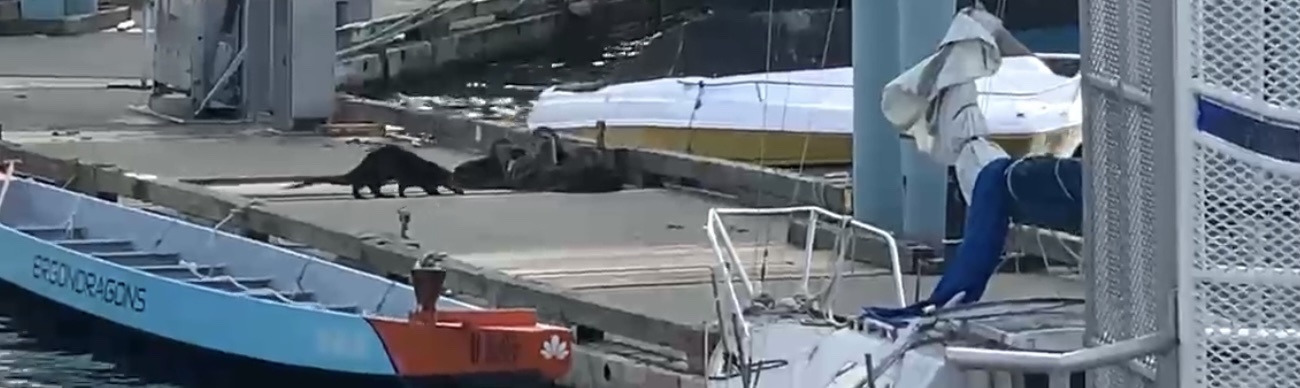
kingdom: Animalia
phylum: Chordata
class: Mammalia
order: Carnivora
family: Mustelidae
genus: Lontra
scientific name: Lontra canadensis
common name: North american river otter
